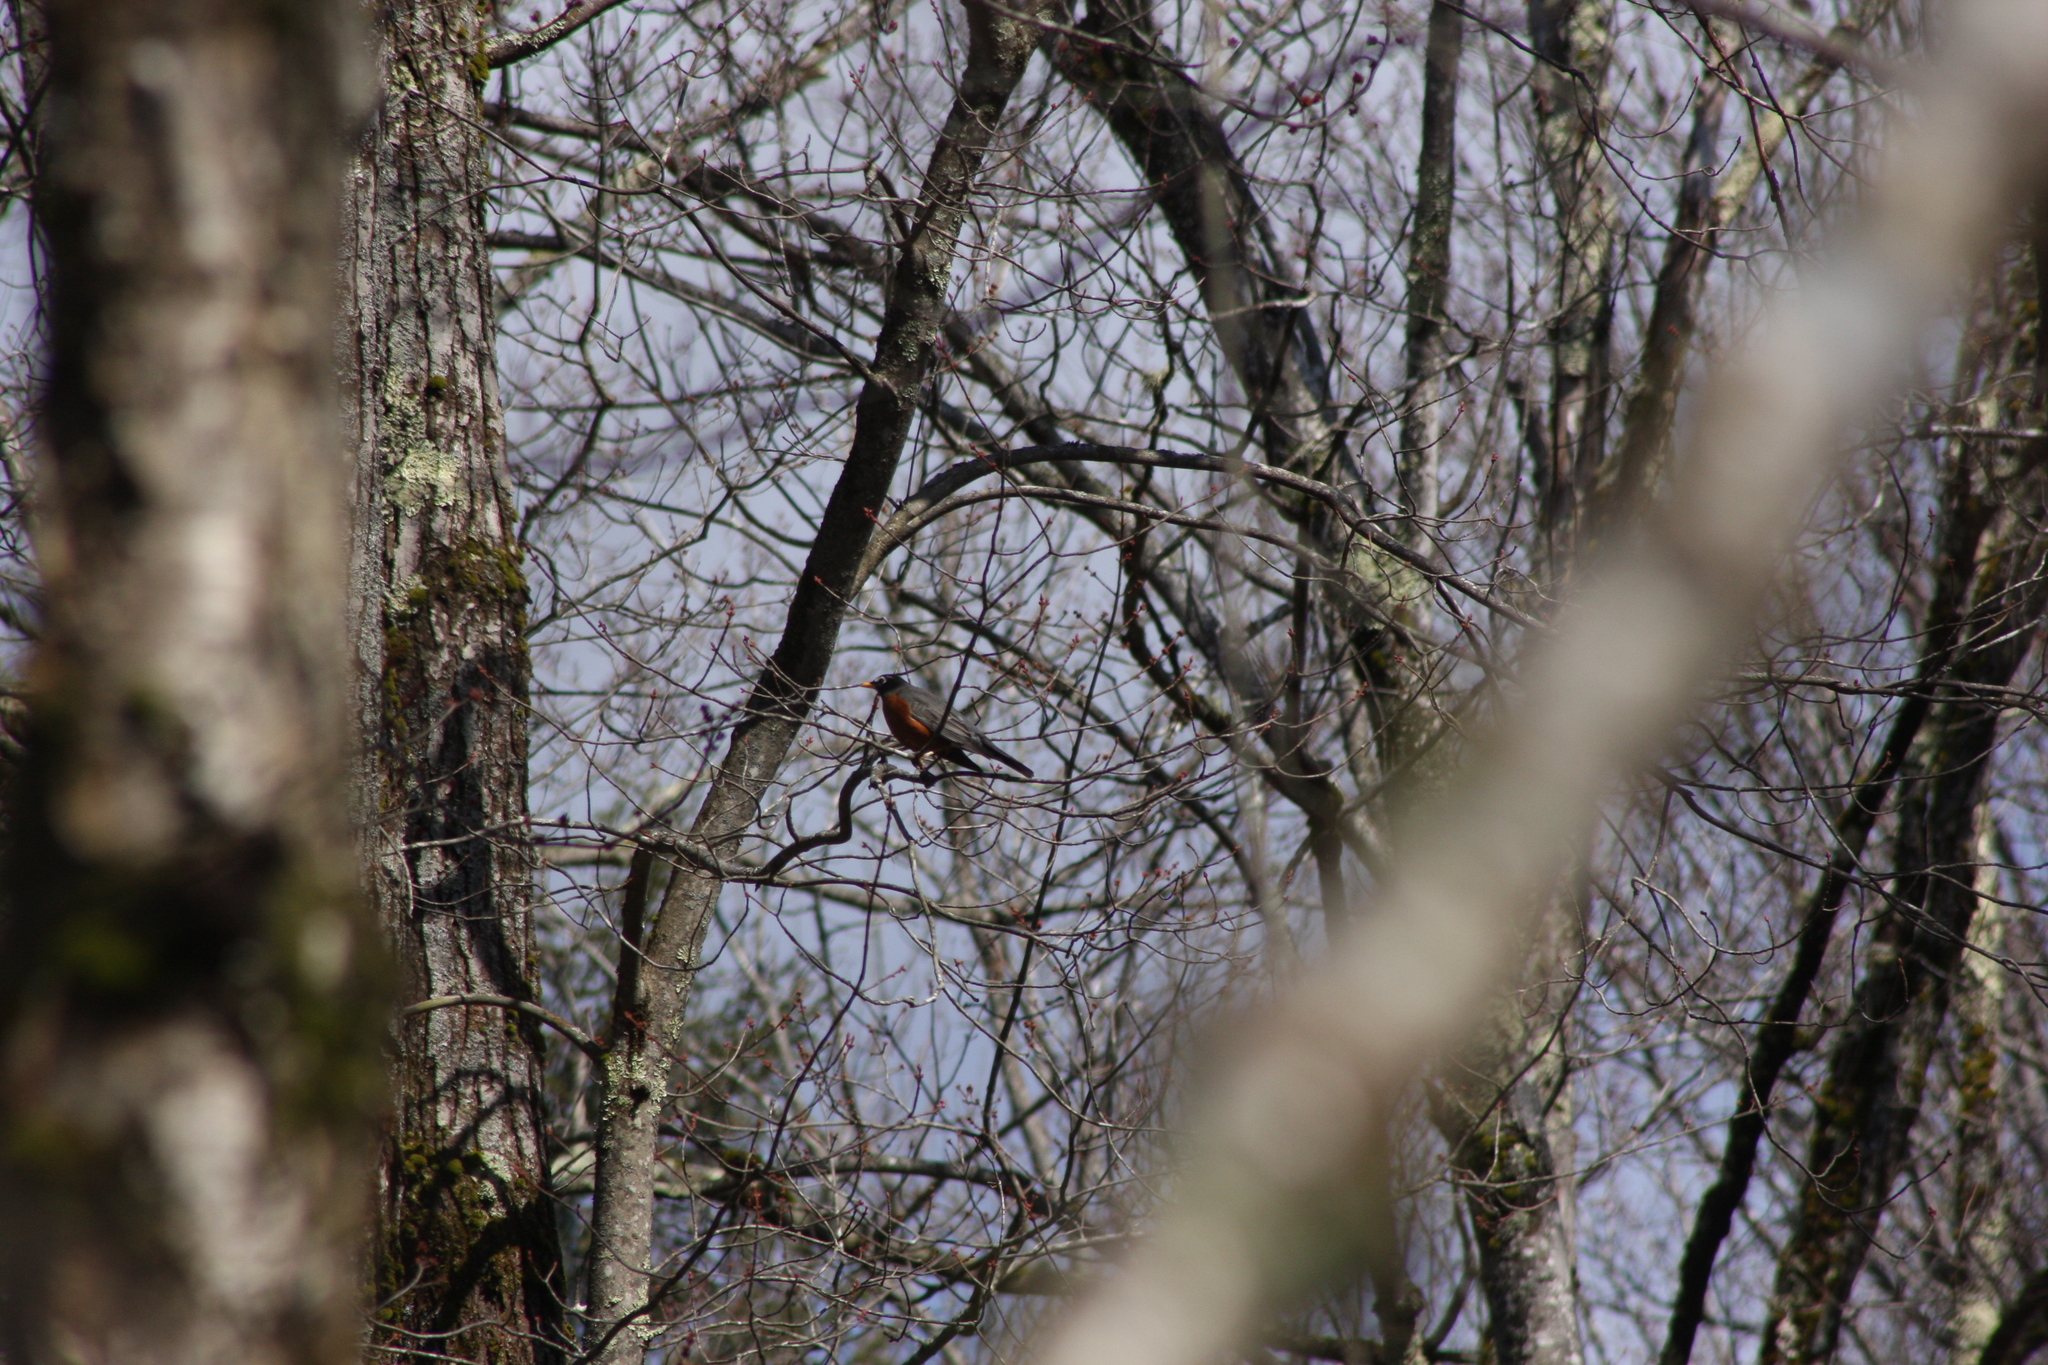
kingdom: Animalia
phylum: Chordata
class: Aves
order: Passeriformes
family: Turdidae
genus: Turdus
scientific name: Turdus migratorius
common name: American robin
